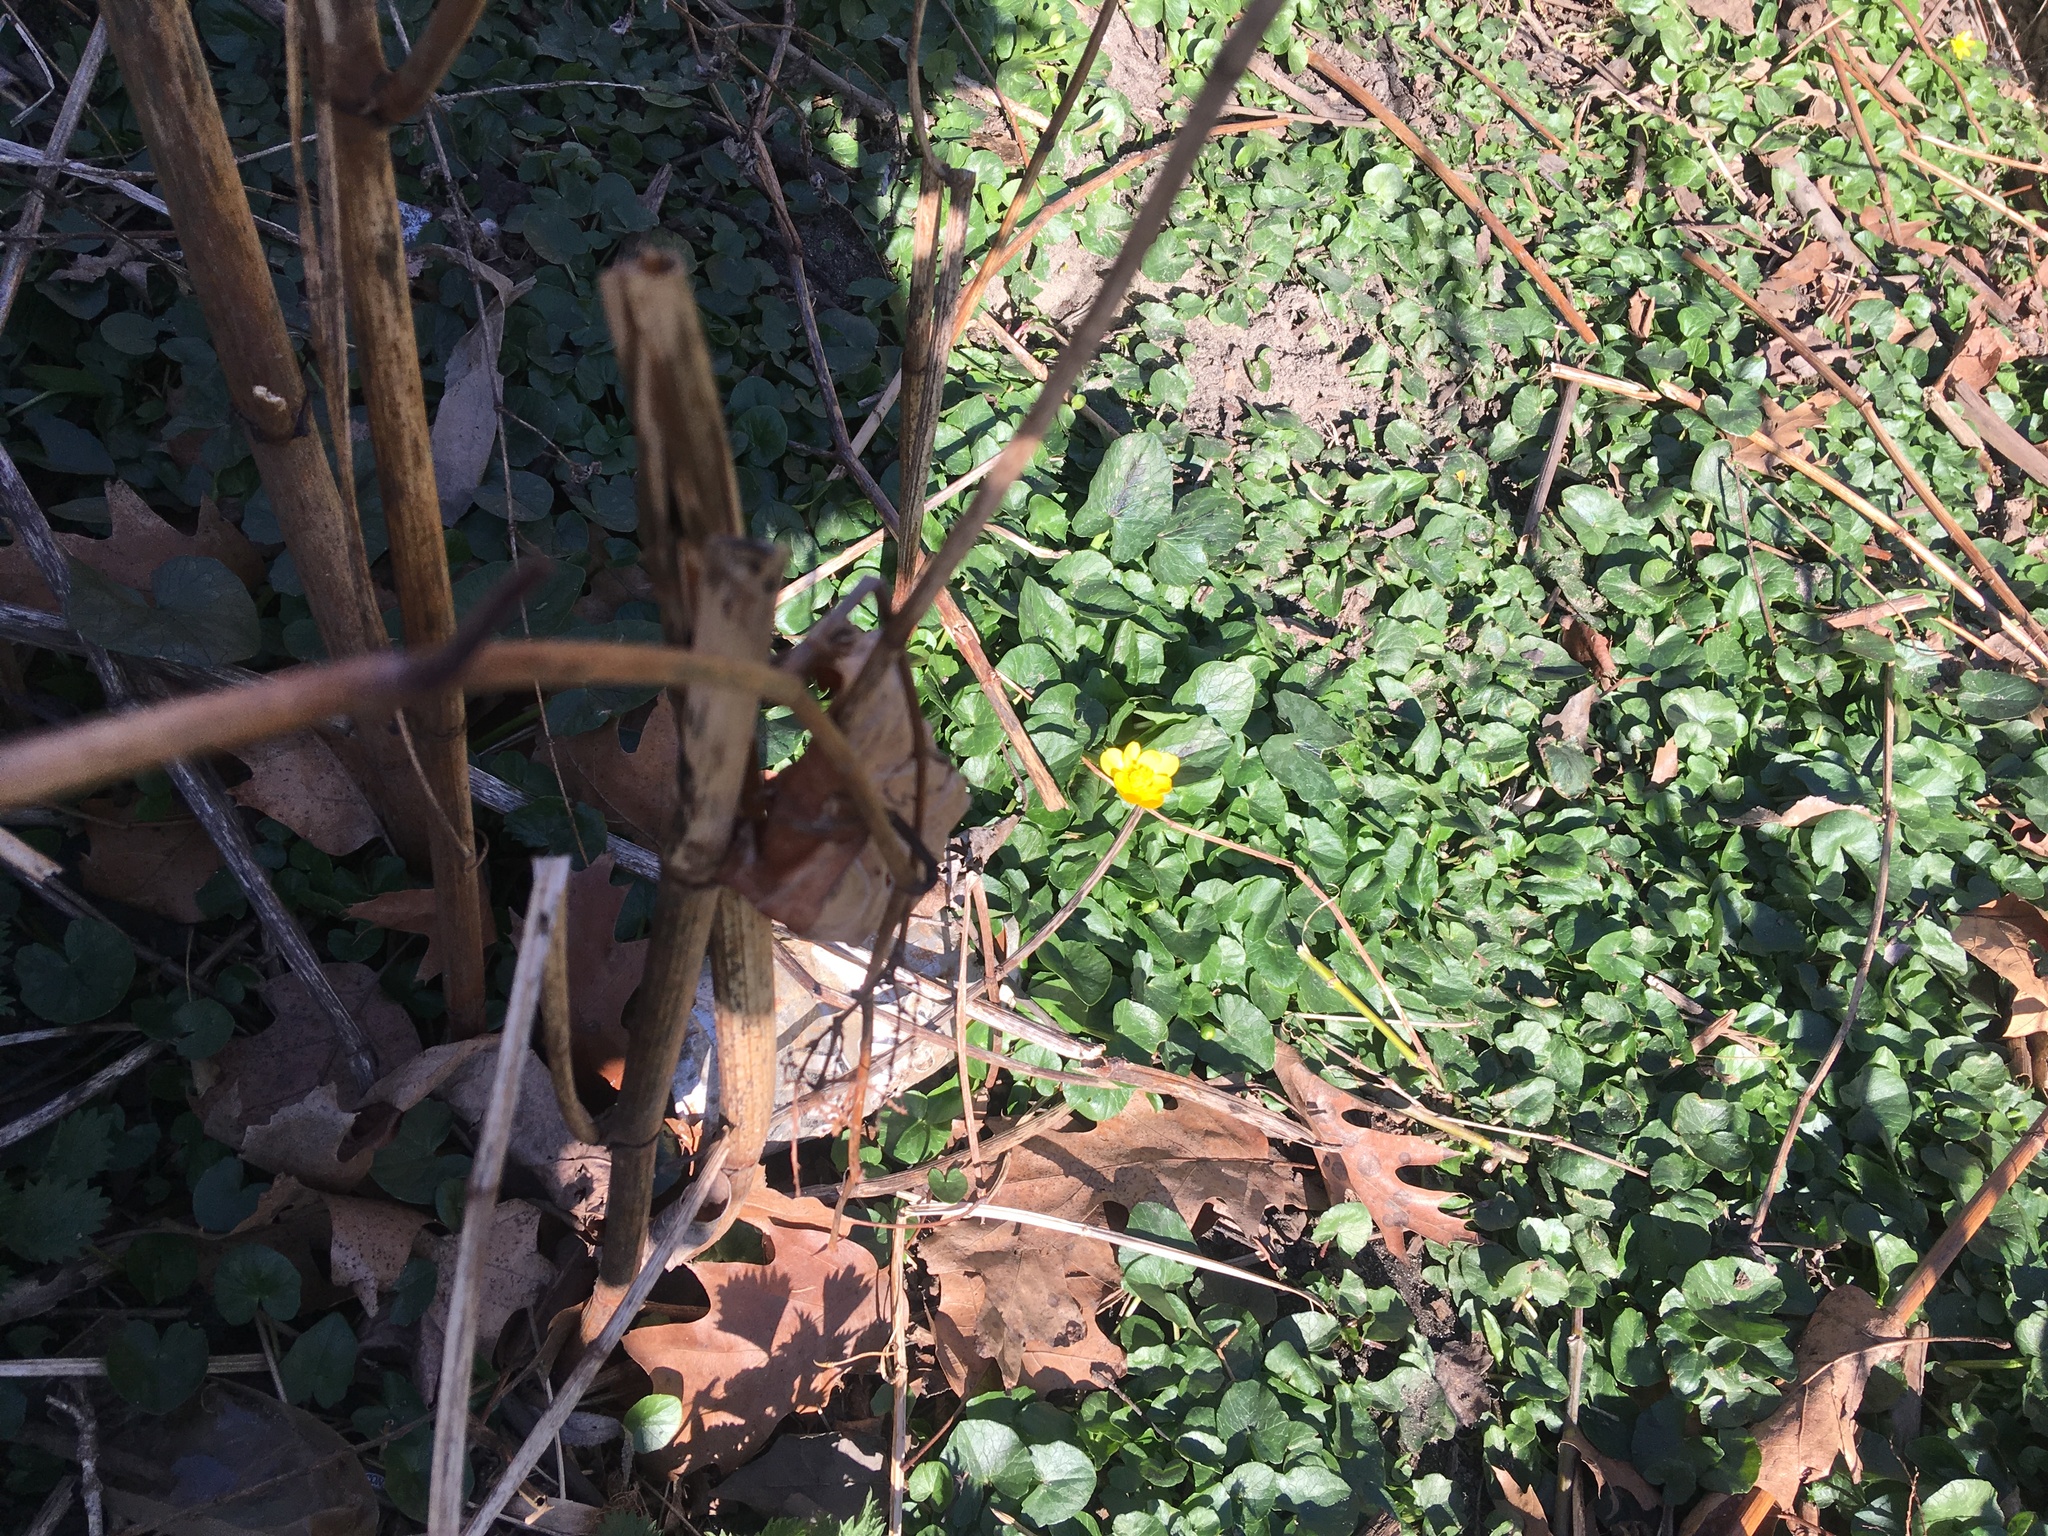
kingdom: Plantae
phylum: Tracheophyta
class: Magnoliopsida
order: Ranunculales
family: Ranunculaceae
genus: Ficaria
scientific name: Ficaria verna
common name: Lesser celandine
